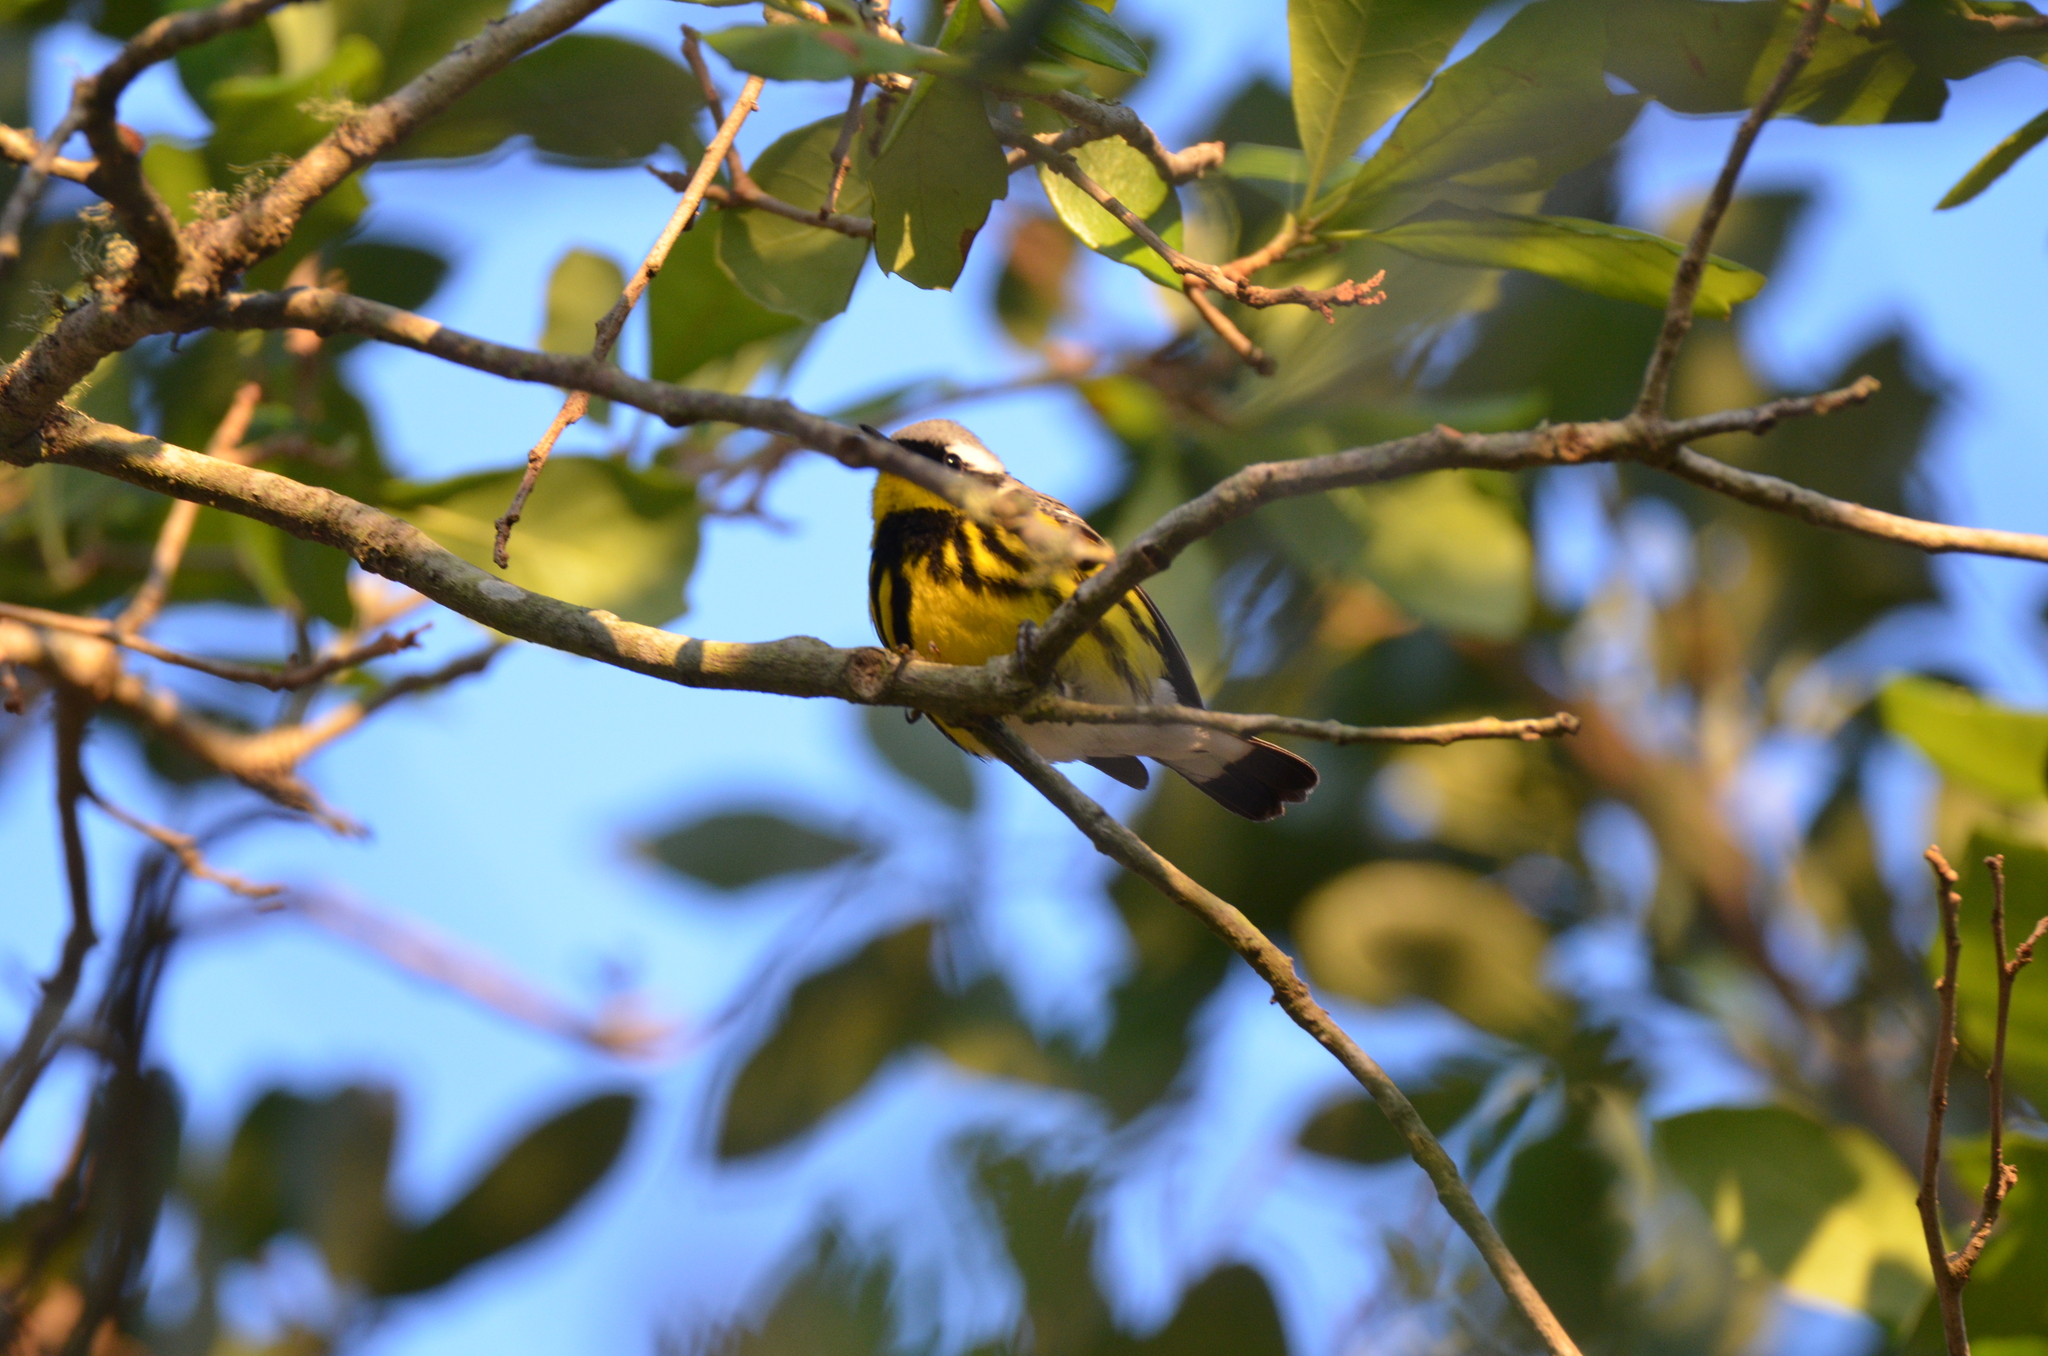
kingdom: Animalia
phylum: Chordata
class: Aves
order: Passeriformes
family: Parulidae
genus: Setophaga
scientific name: Setophaga magnolia
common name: Magnolia warbler
